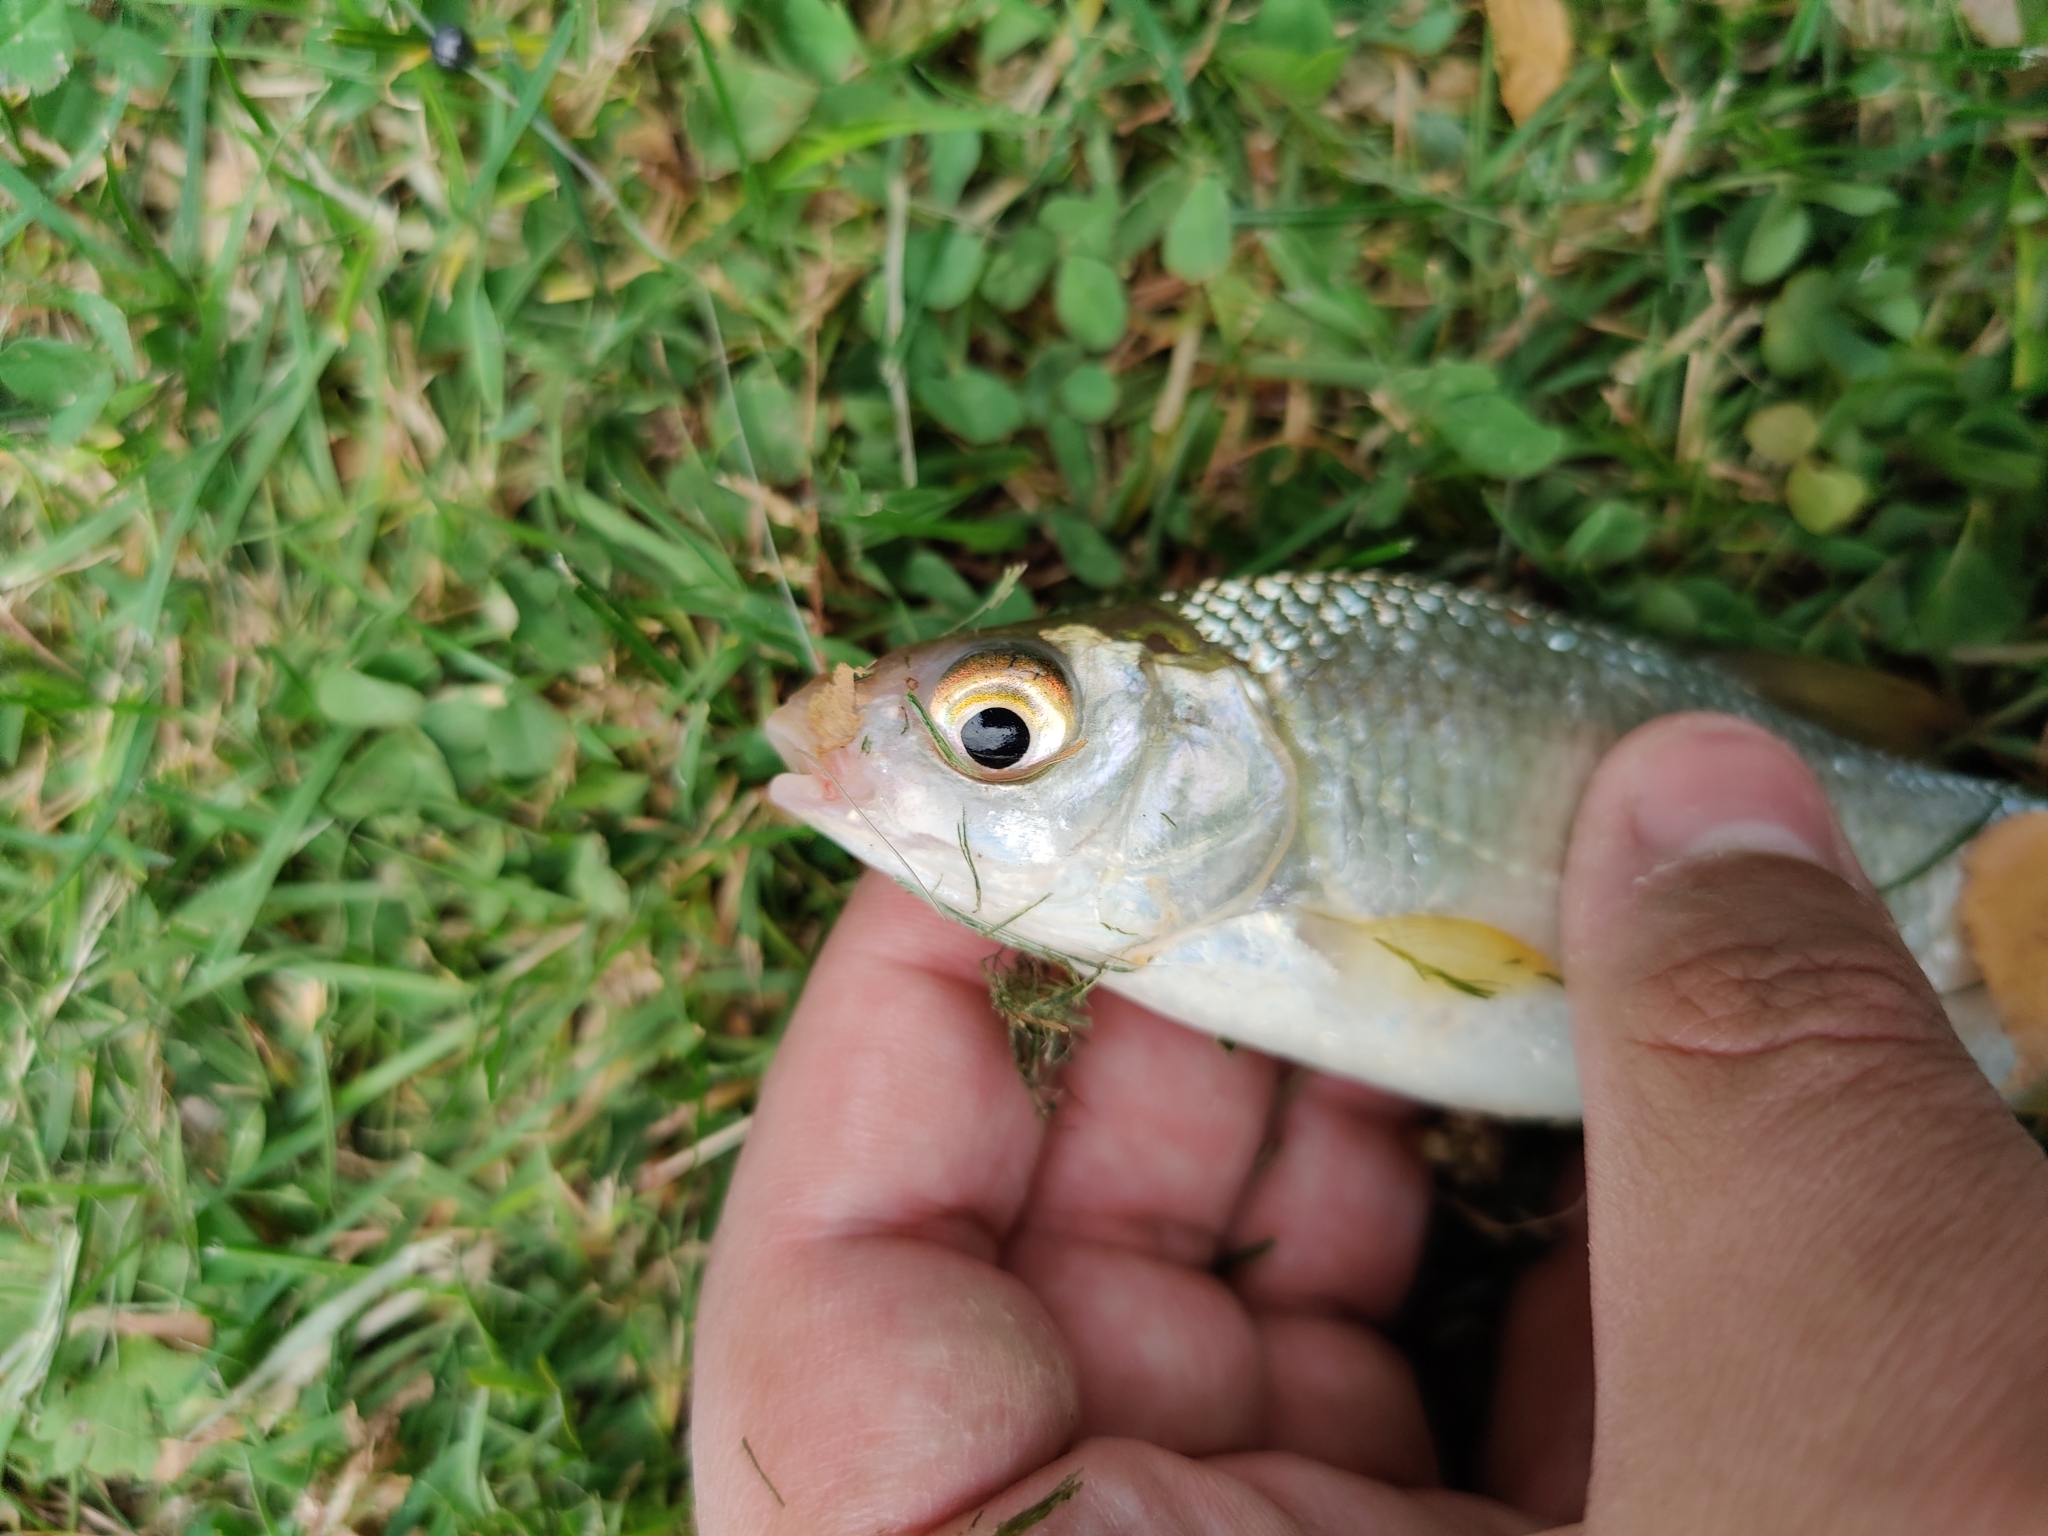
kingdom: Animalia
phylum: Chordata
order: Cypriniformes
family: Cyprinidae
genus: Rutilus
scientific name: Rutilus rutilus
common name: Roach
